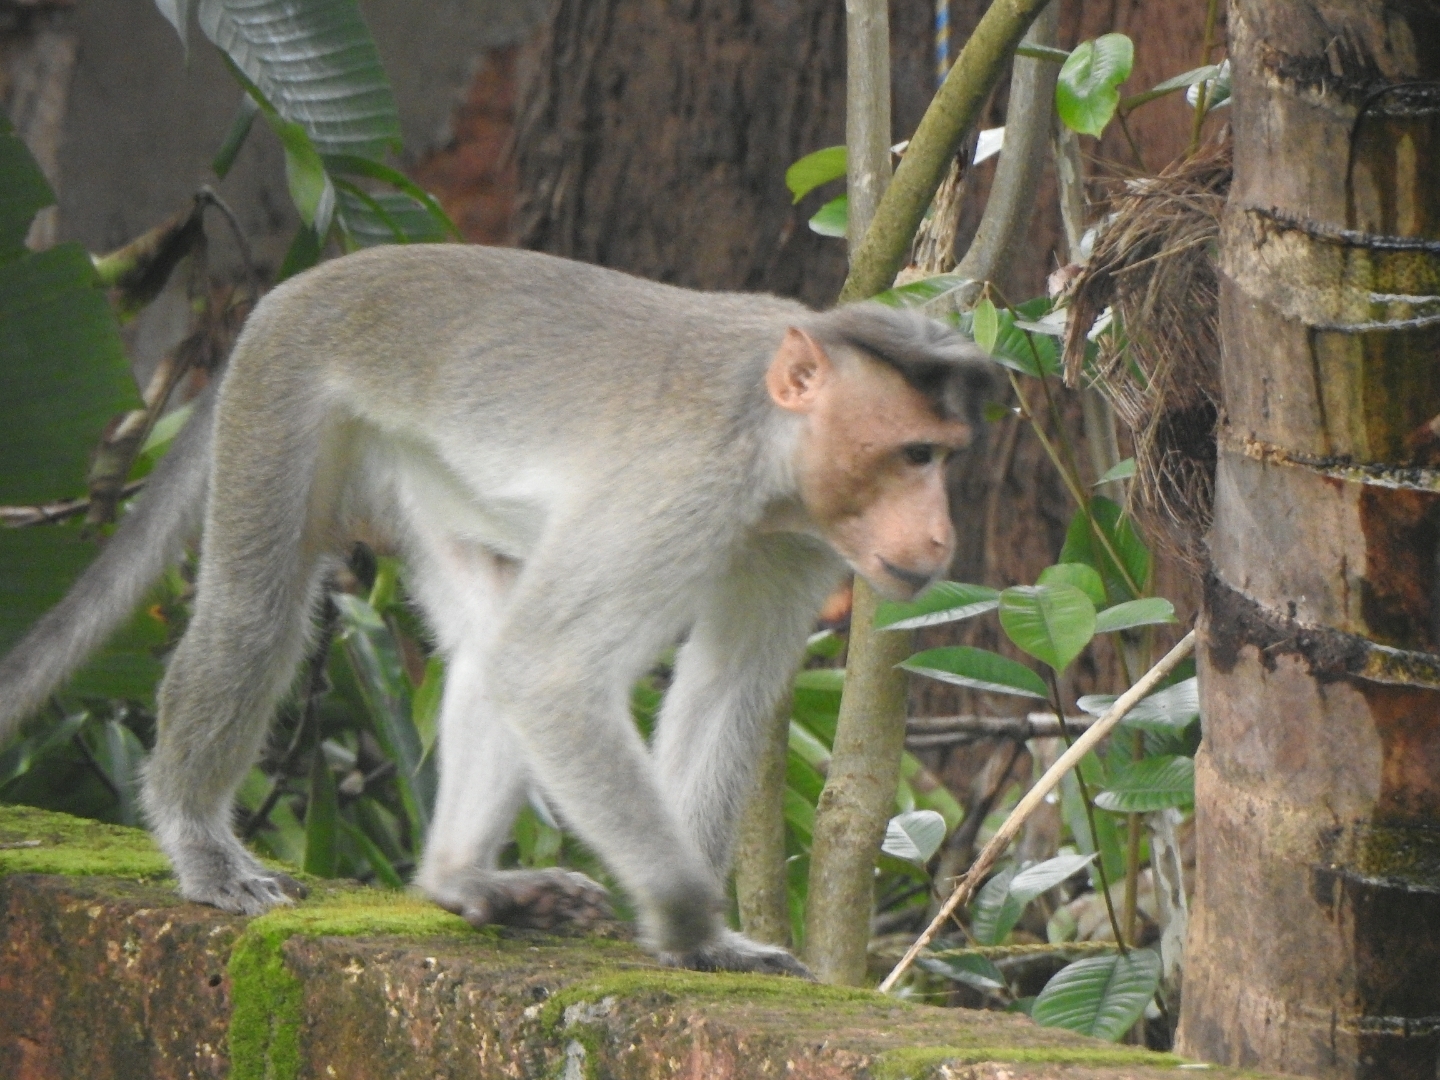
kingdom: Animalia
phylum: Chordata
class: Mammalia
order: Primates
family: Cercopithecidae
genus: Macaca
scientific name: Macaca radiata
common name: Bonnet macaque
